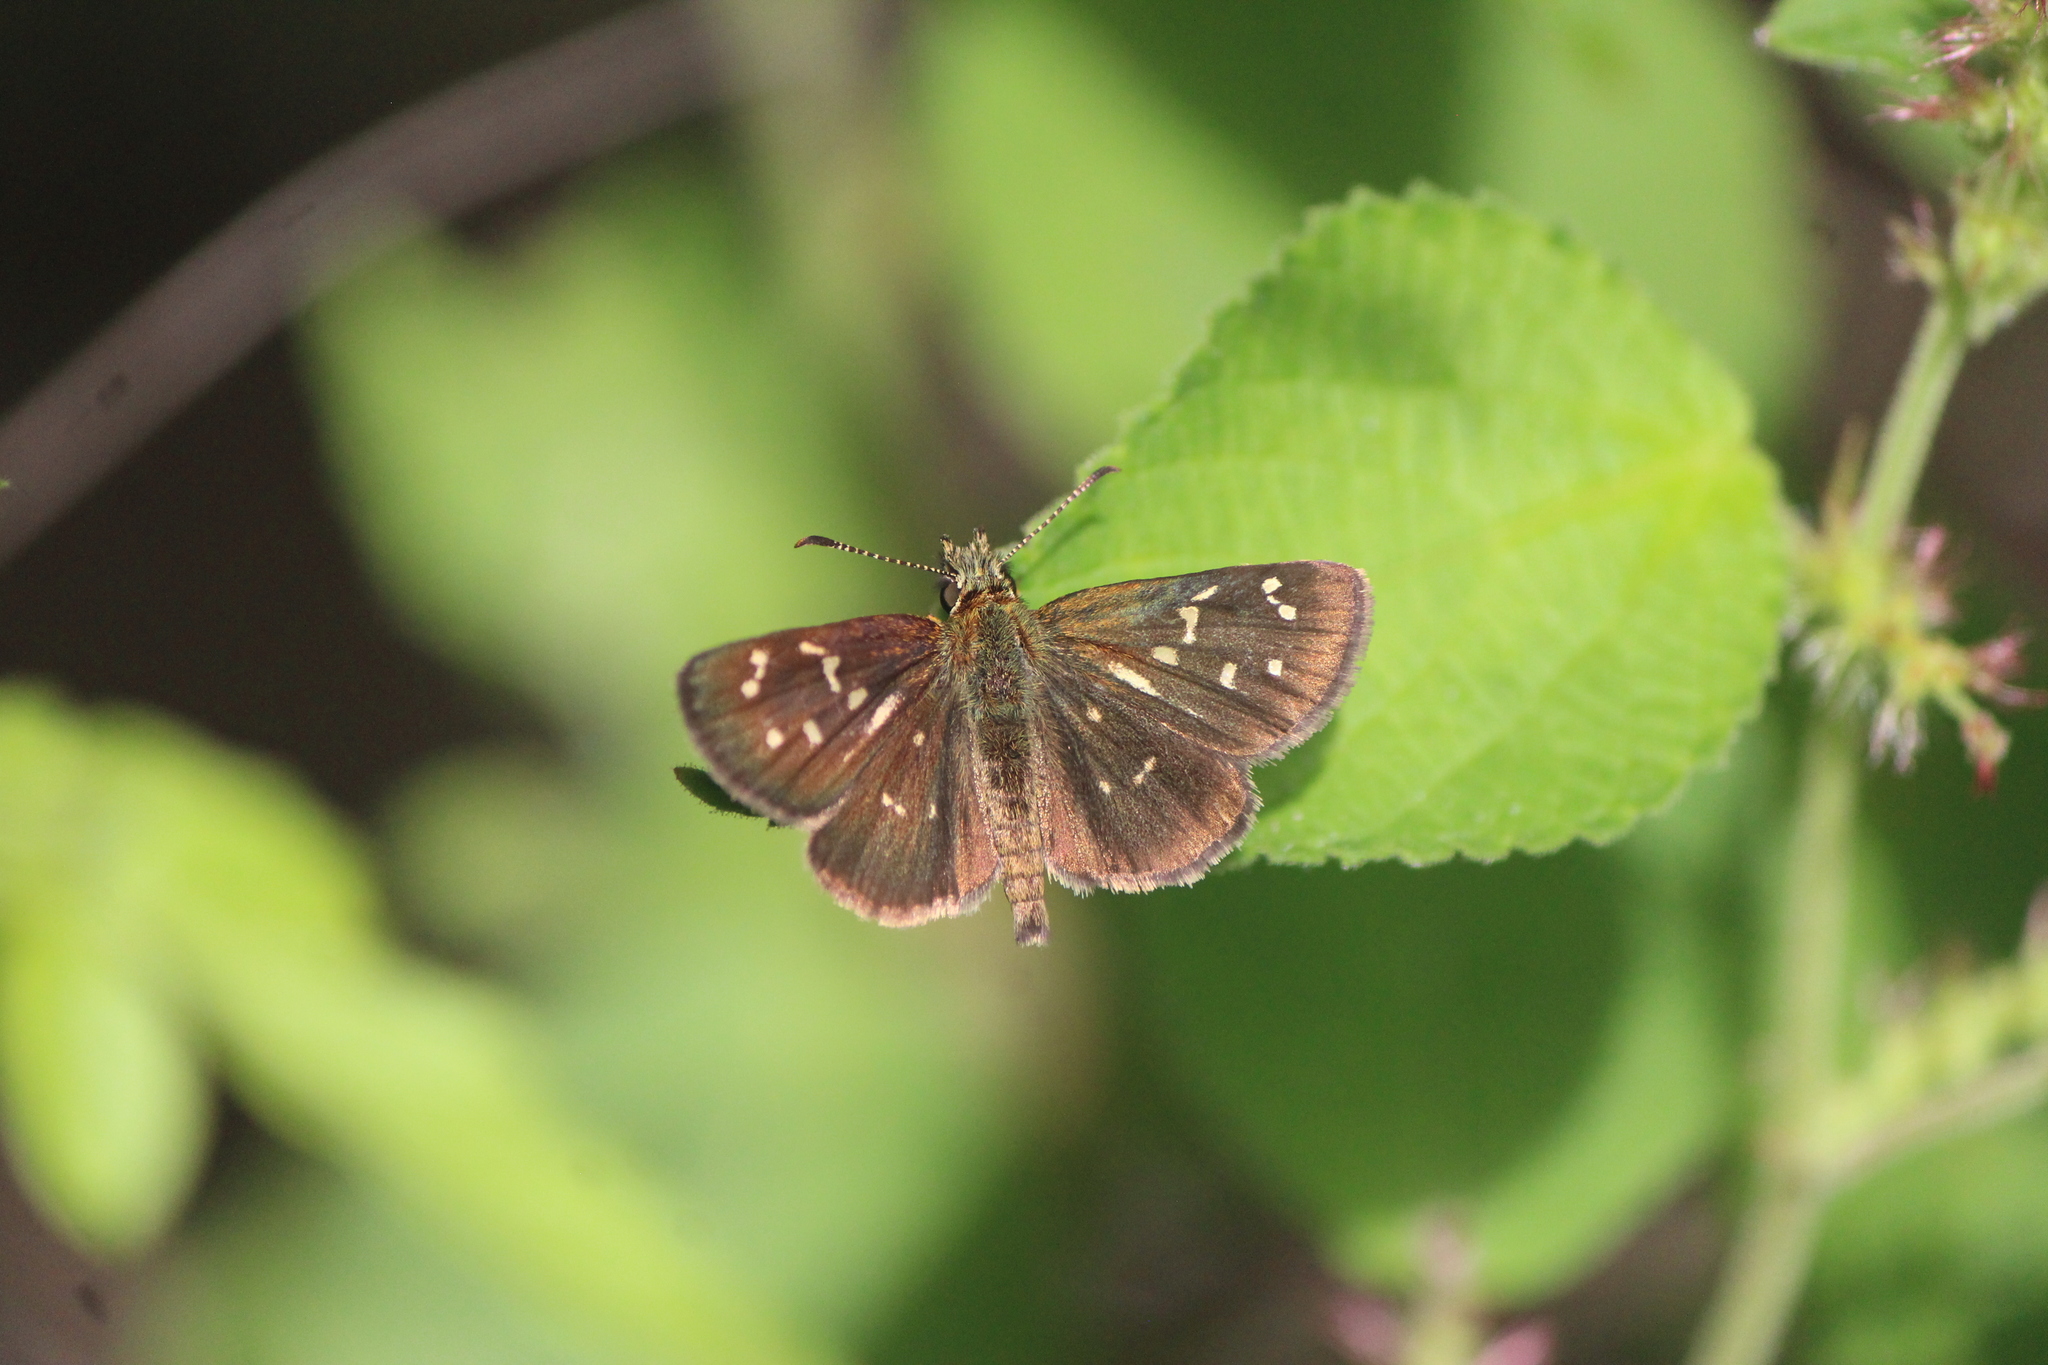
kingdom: Animalia
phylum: Arthropoda
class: Insecta
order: Lepidoptera
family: Hesperiidae
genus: Piruna
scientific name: Piruna aea
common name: Many-spotted skipperling
